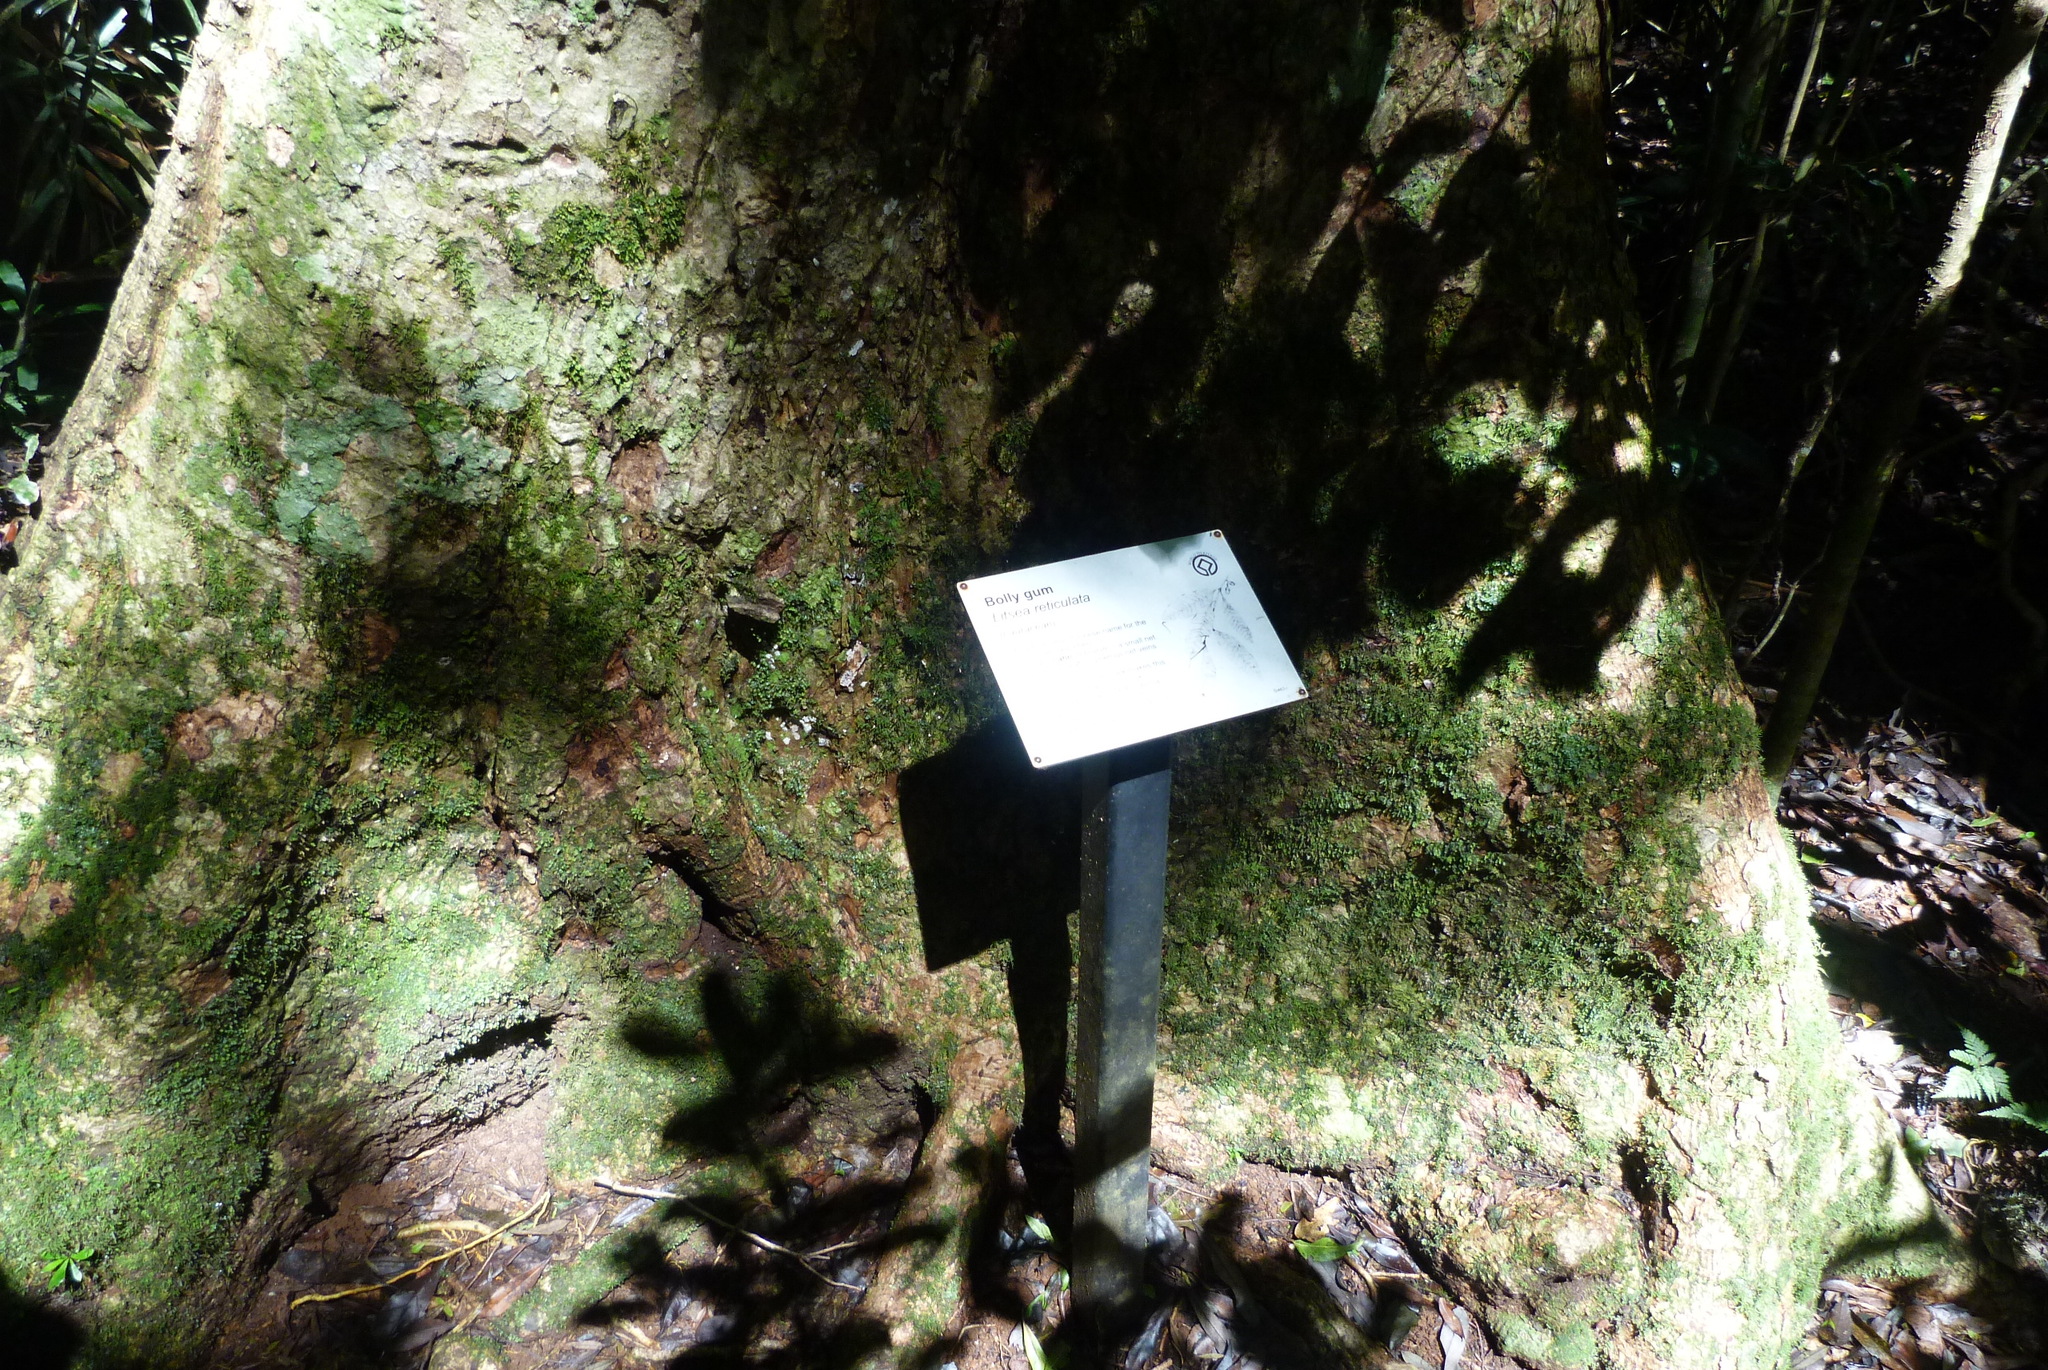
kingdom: Plantae
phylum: Tracheophyta
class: Magnoliopsida
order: Laurales
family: Lauraceae
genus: Litsea
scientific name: Litsea reticulata
